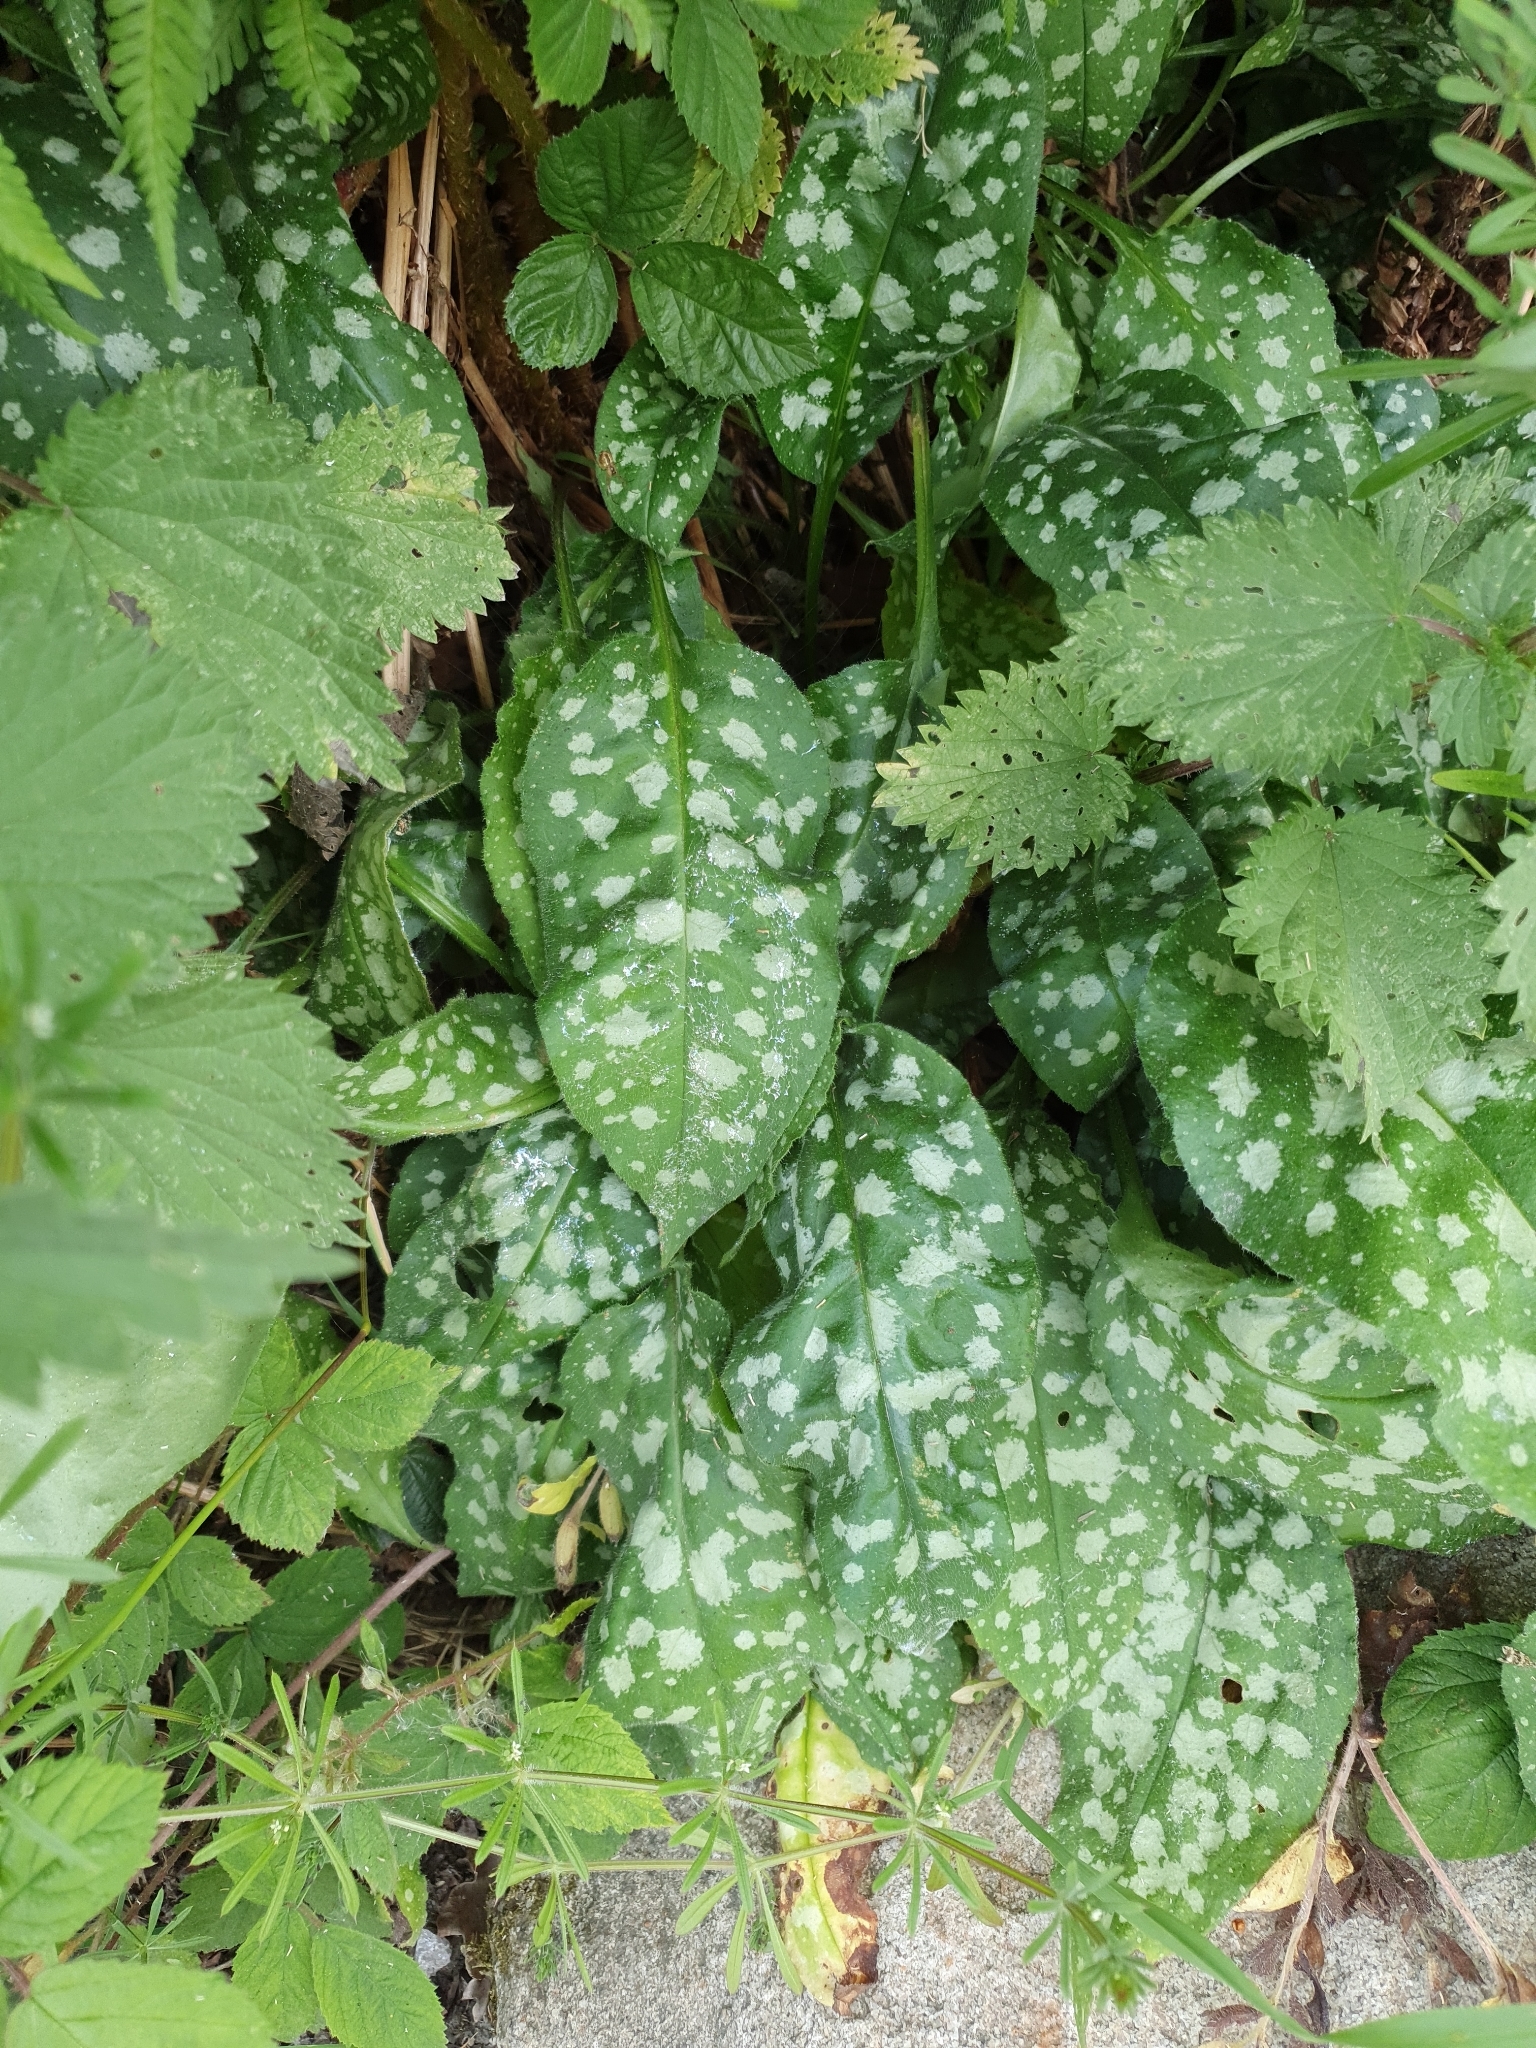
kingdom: Plantae
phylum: Tracheophyta
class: Magnoliopsida
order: Boraginales
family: Boraginaceae
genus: Pulmonaria
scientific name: Pulmonaria officinalis
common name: Lungwort
